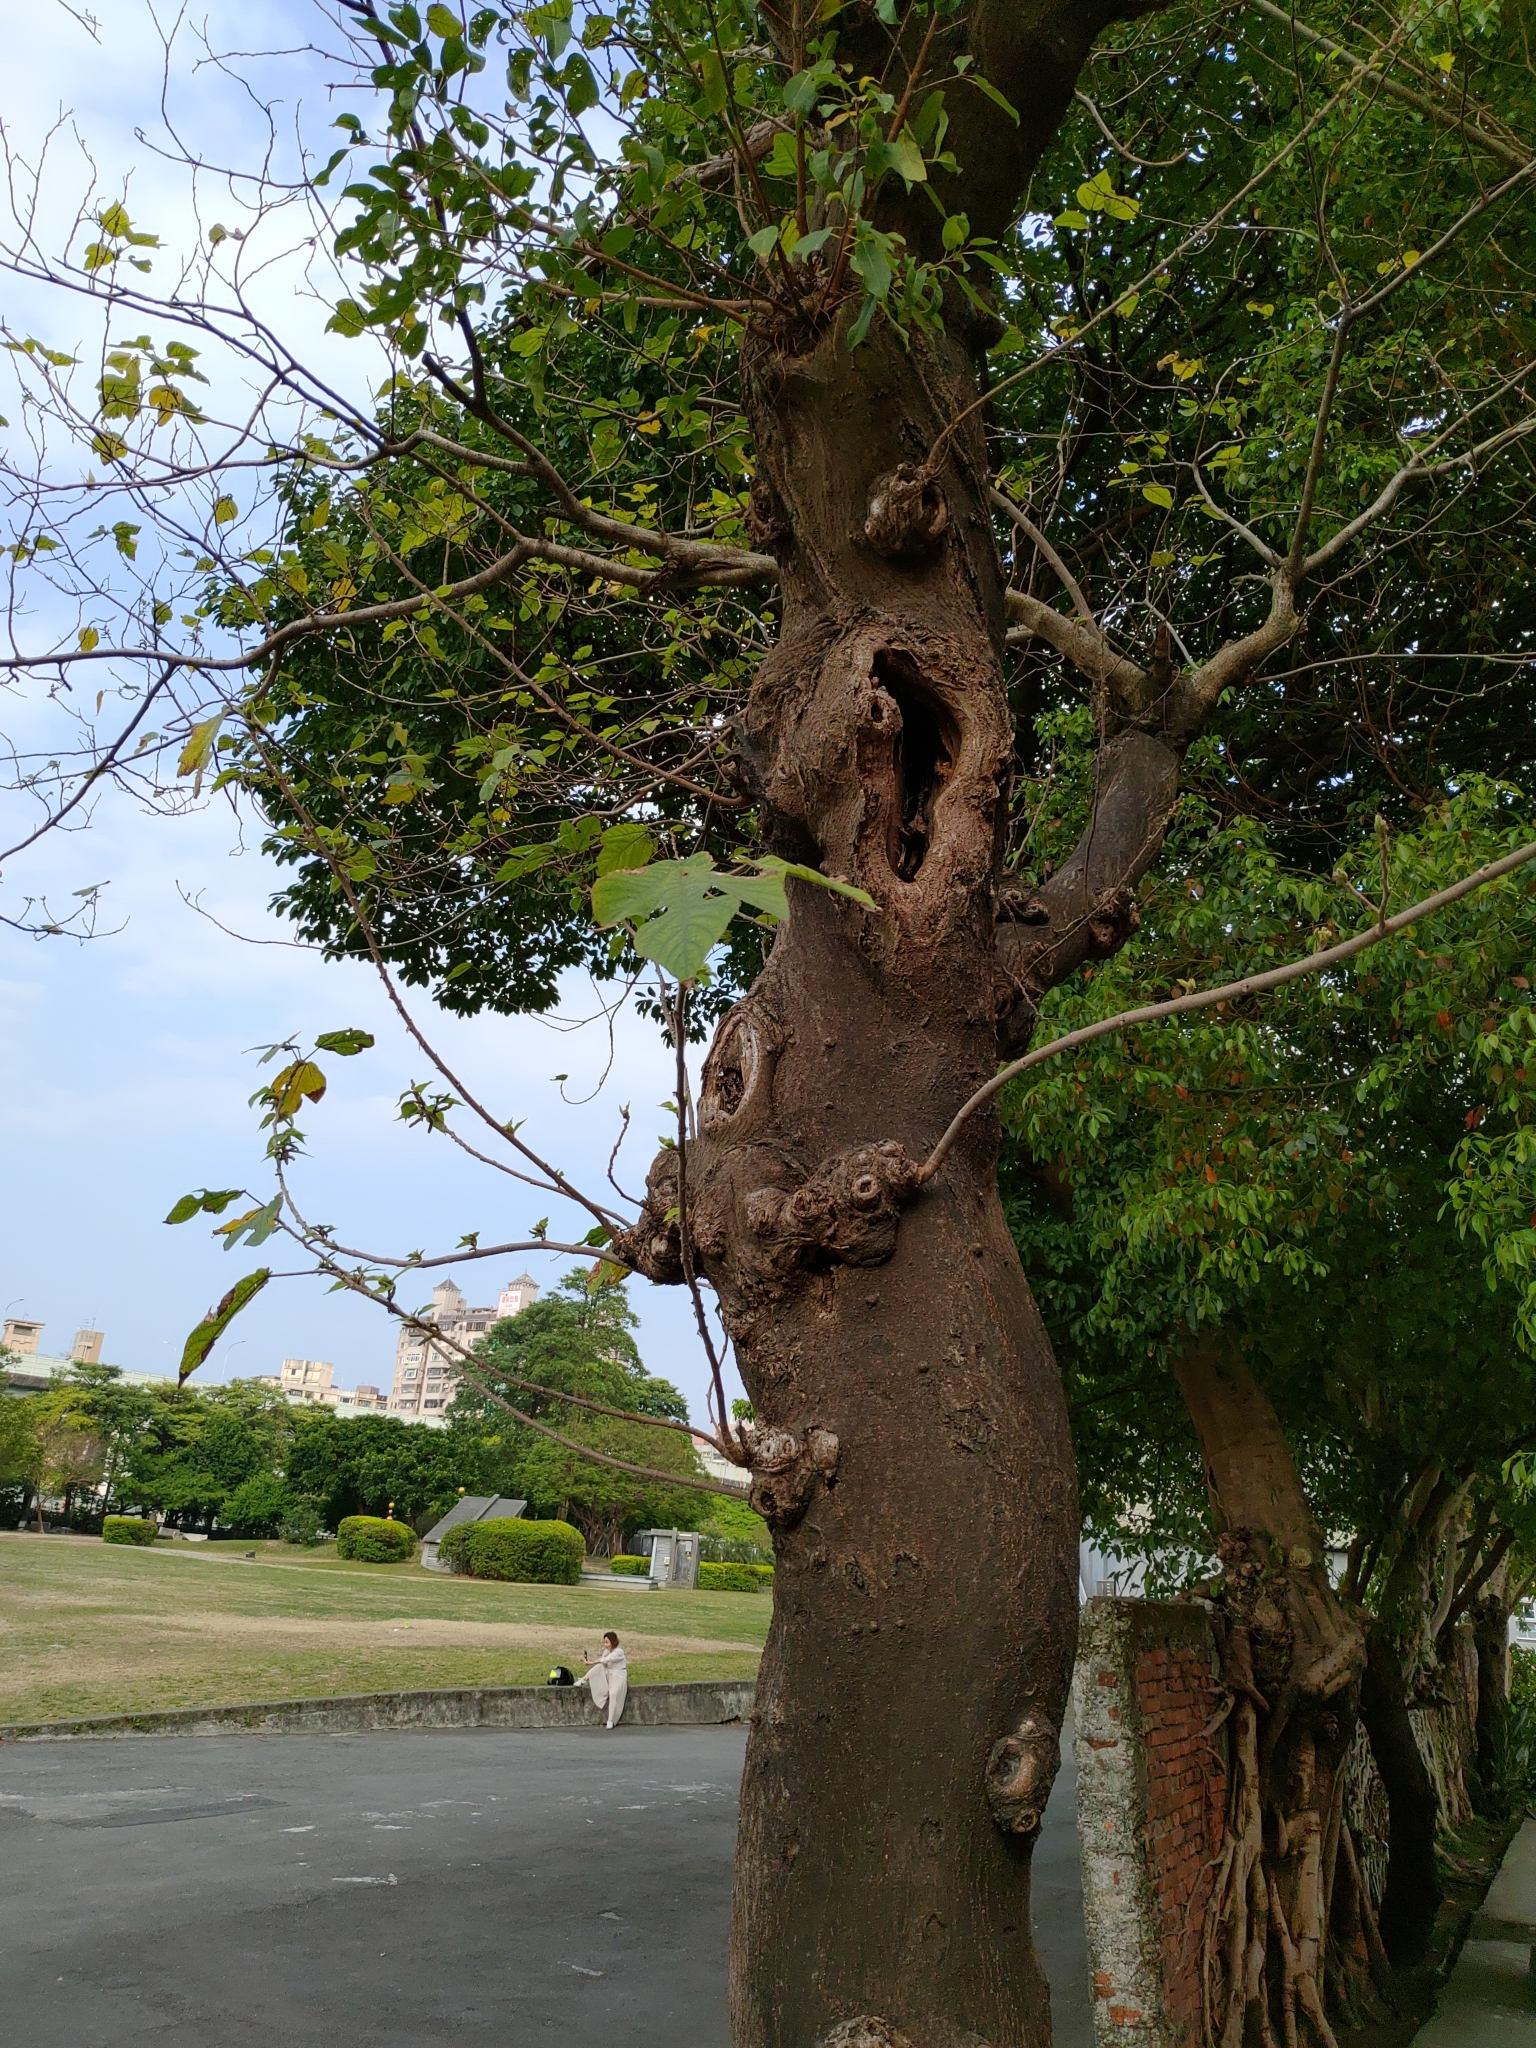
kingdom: Plantae
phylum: Tracheophyta
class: Magnoliopsida
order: Rosales
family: Moraceae
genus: Broussonetia
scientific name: Broussonetia papyrifera
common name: Paper mulberry
